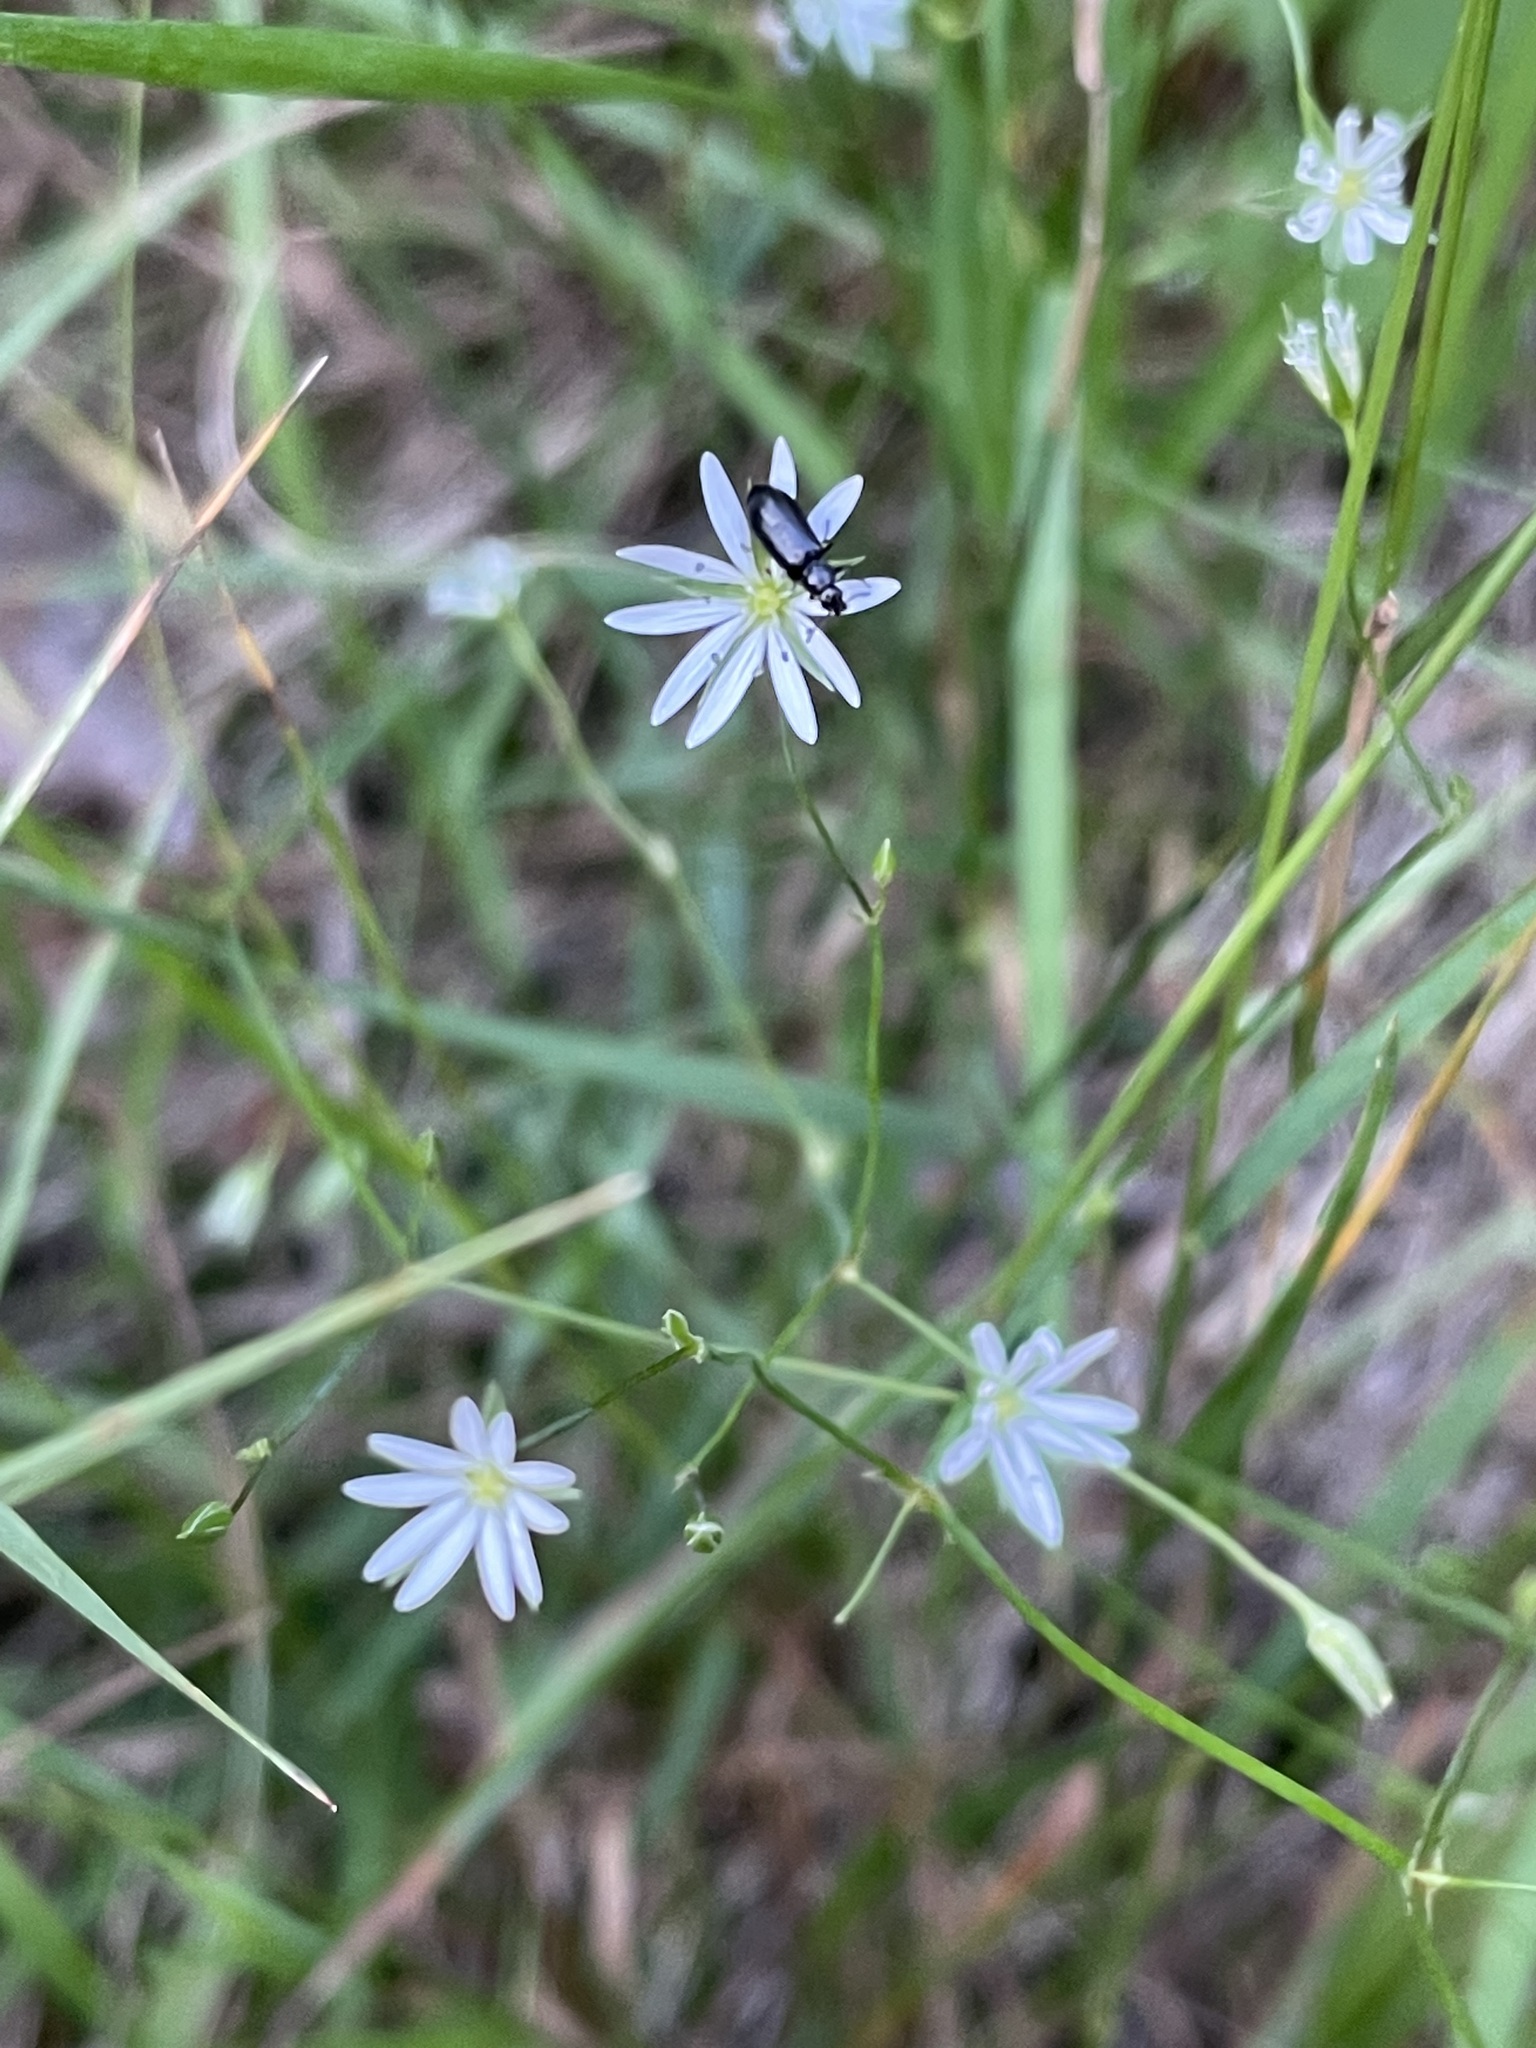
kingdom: Plantae
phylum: Tracheophyta
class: Magnoliopsida
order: Caryophyllales
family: Caryophyllaceae
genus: Stellaria
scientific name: Stellaria graminea
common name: Grass-like starwort
